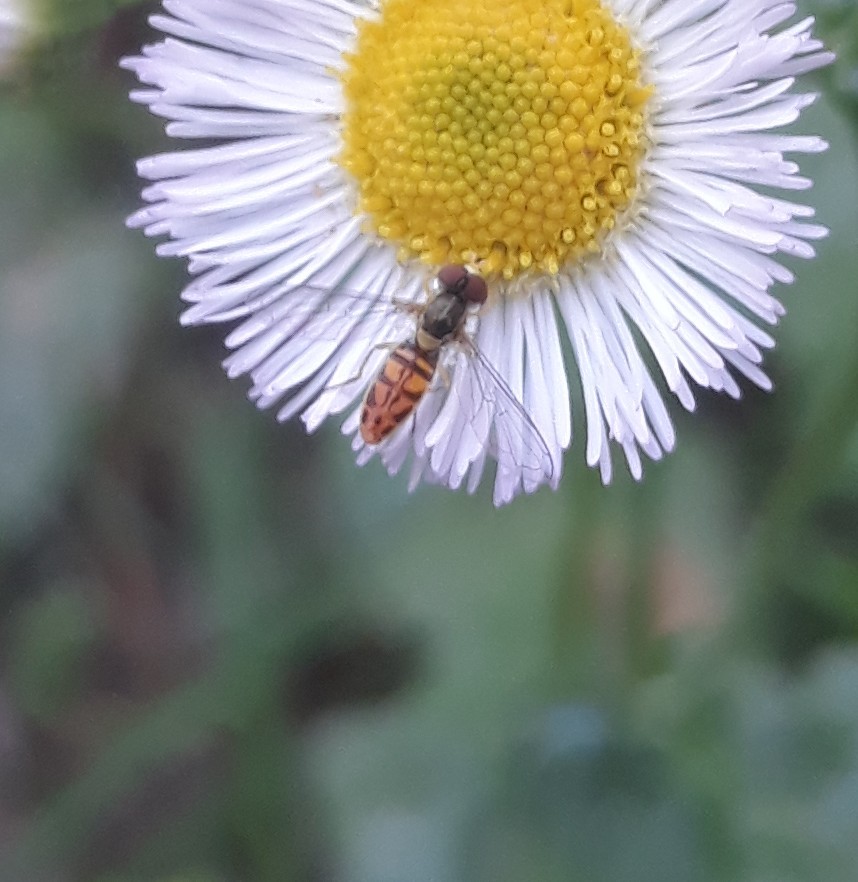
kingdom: Animalia
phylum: Arthropoda
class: Insecta
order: Diptera
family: Syrphidae
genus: Toxomerus
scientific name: Toxomerus marginatus
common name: Syrphid fly
